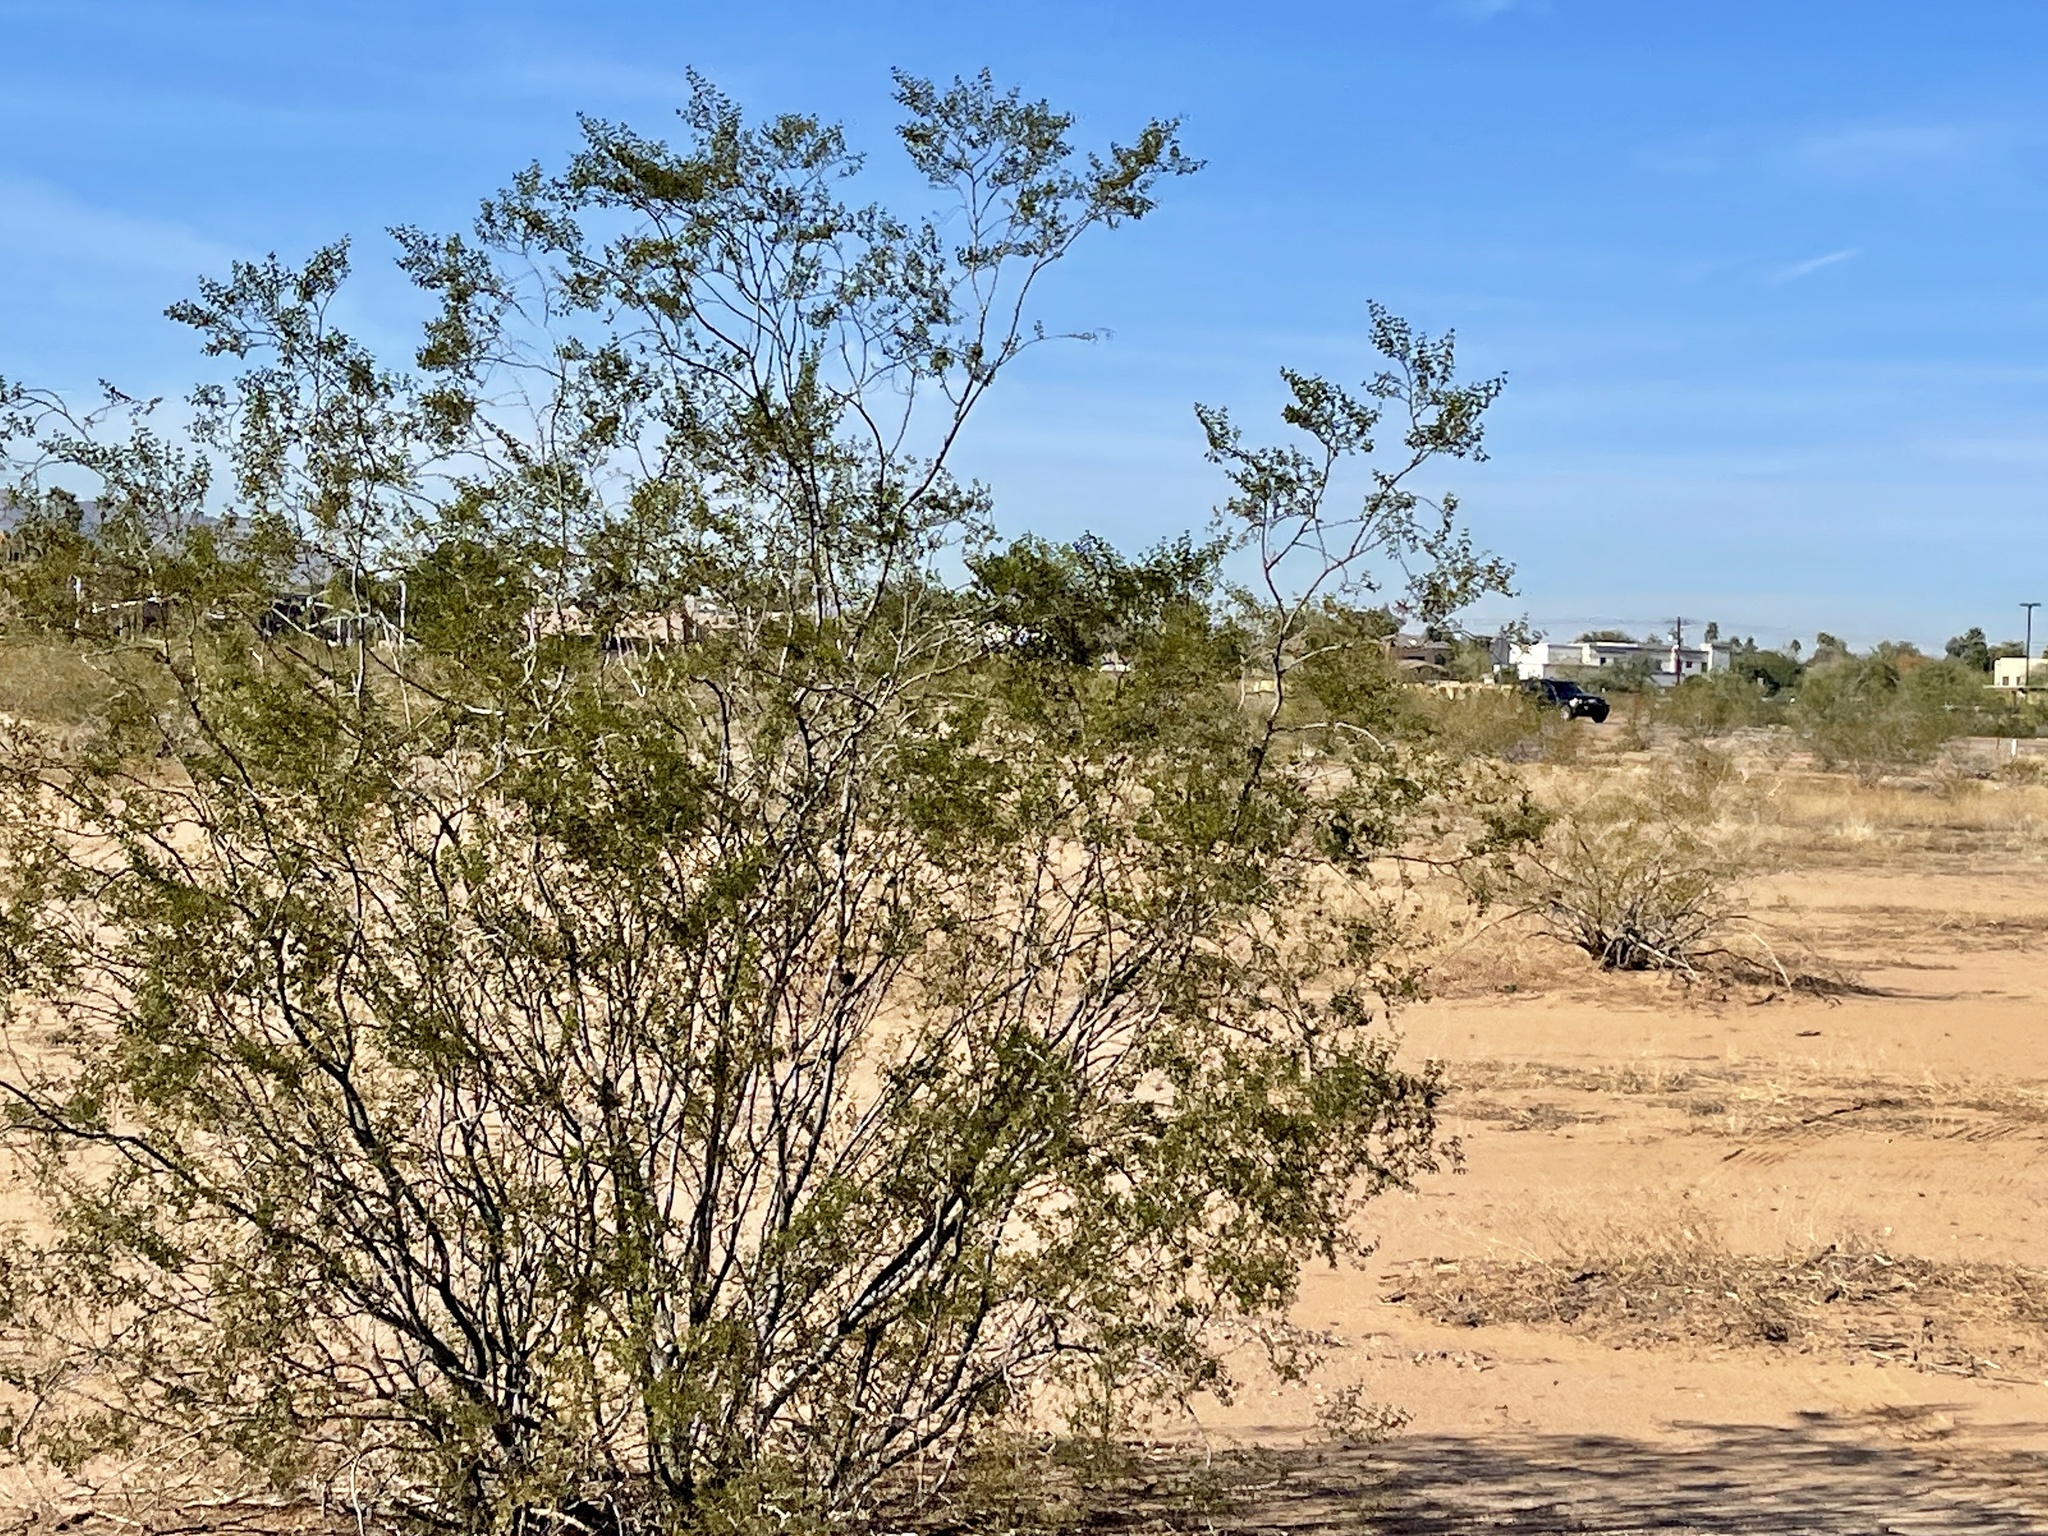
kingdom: Plantae
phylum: Tracheophyta
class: Magnoliopsida
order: Zygophyllales
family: Zygophyllaceae
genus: Larrea
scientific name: Larrea tridentata
